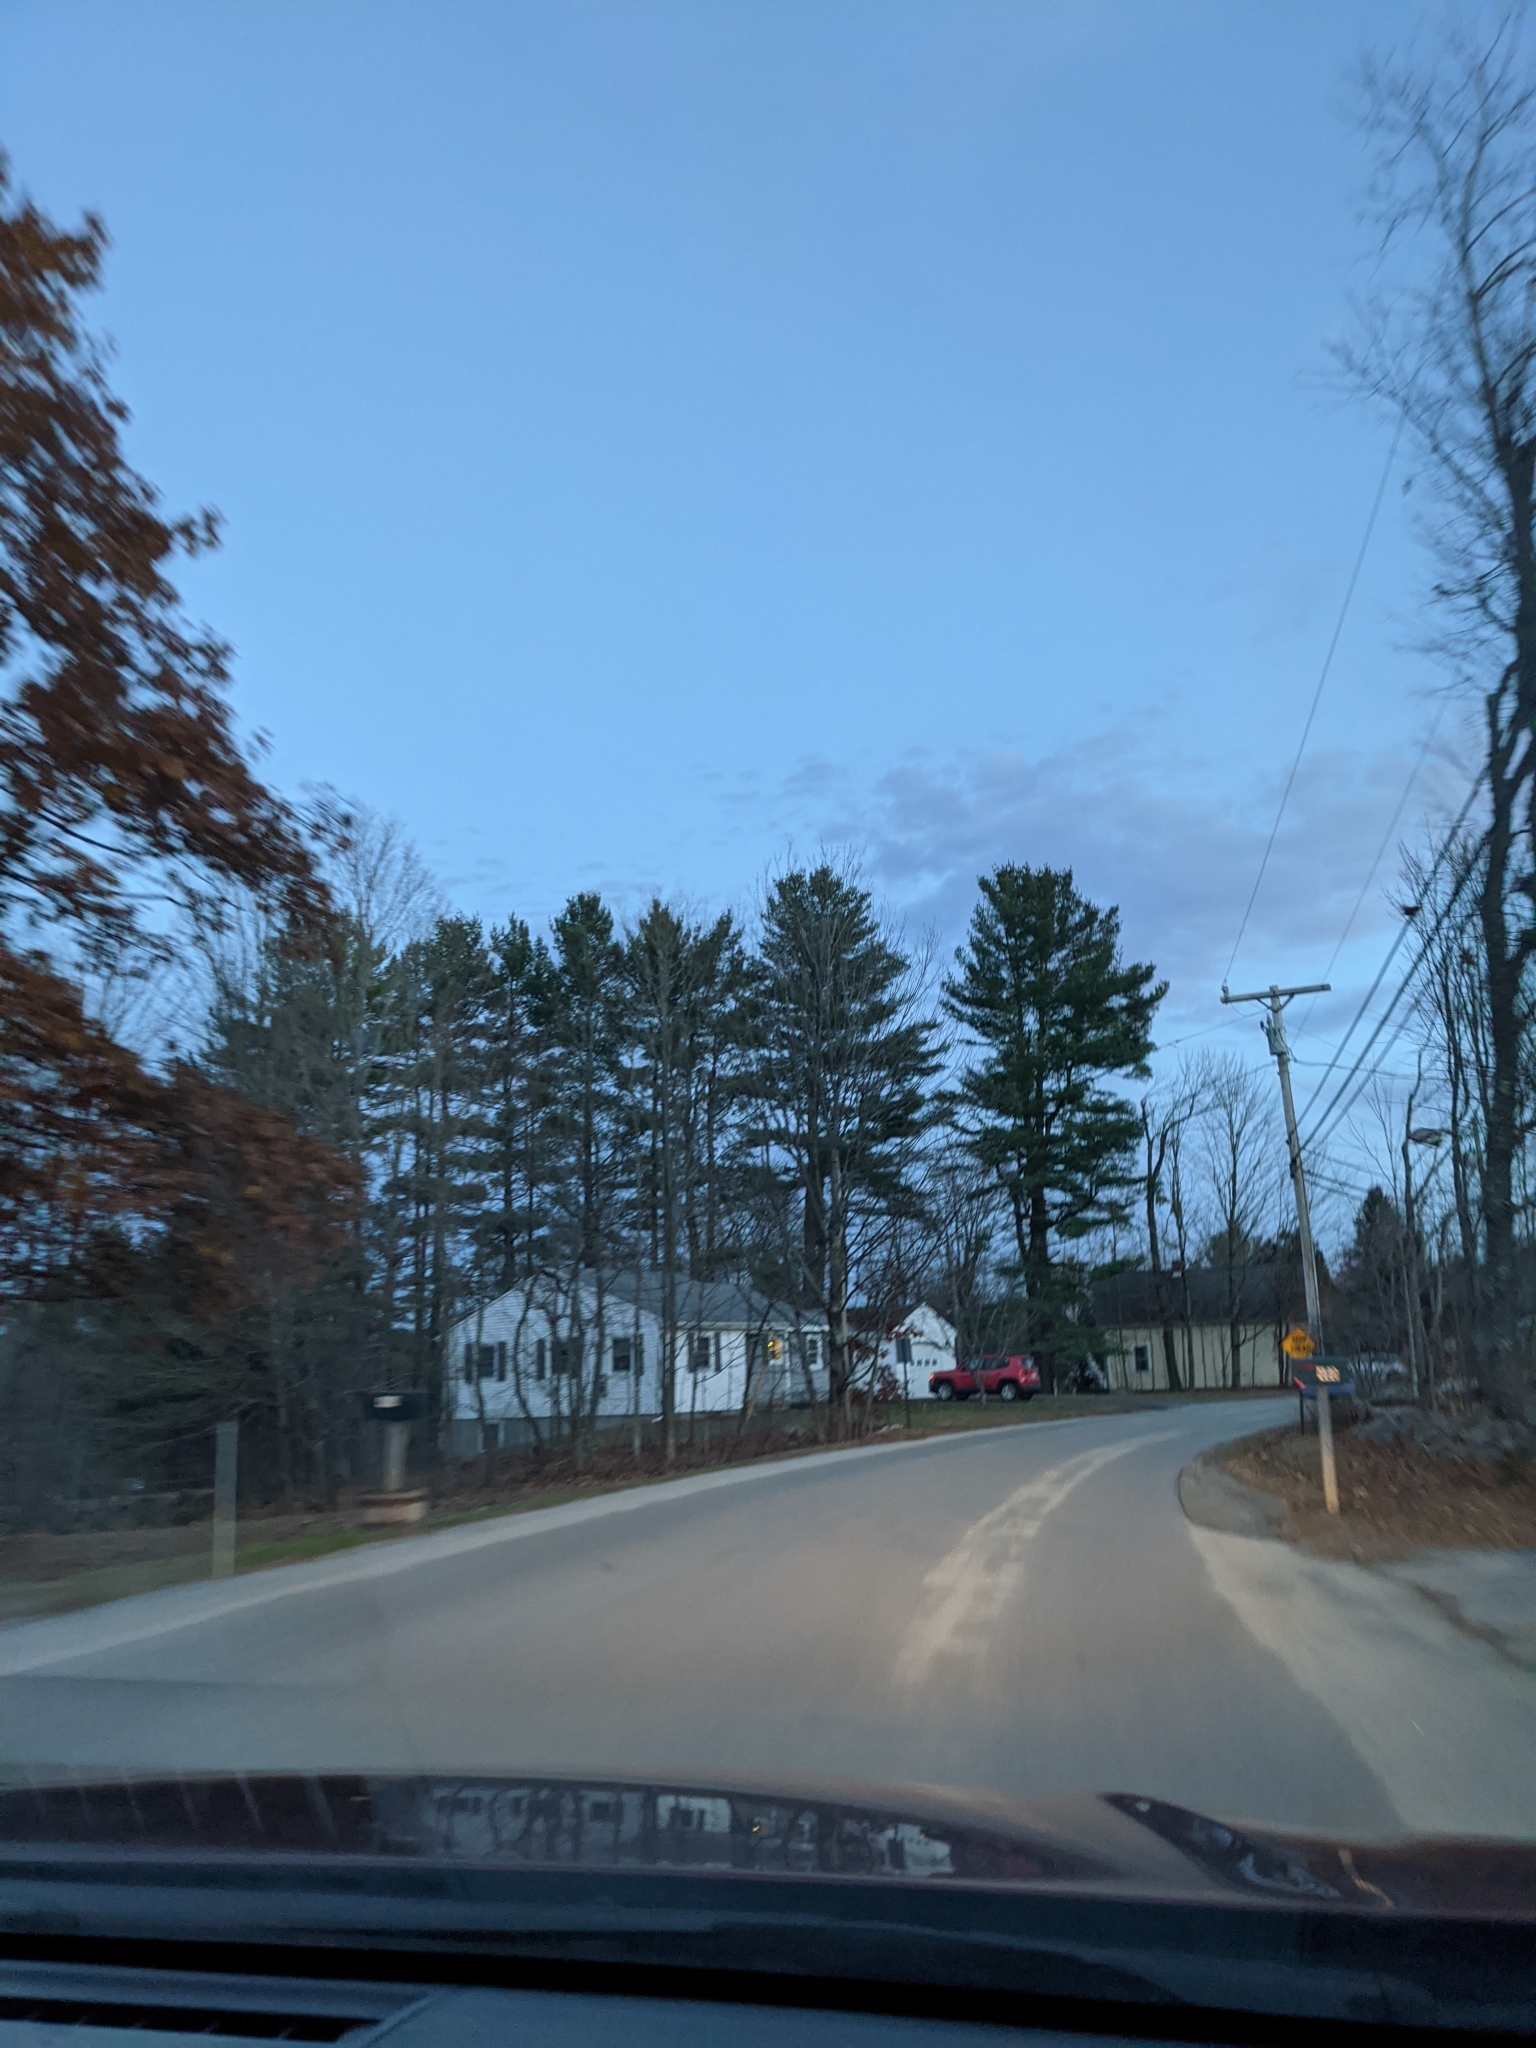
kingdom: Plantae
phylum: Tracheophyta
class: Pinopsida
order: Pinales
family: Pinaceae
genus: Pinus
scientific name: Pinus strobus
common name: Weymouth pine
